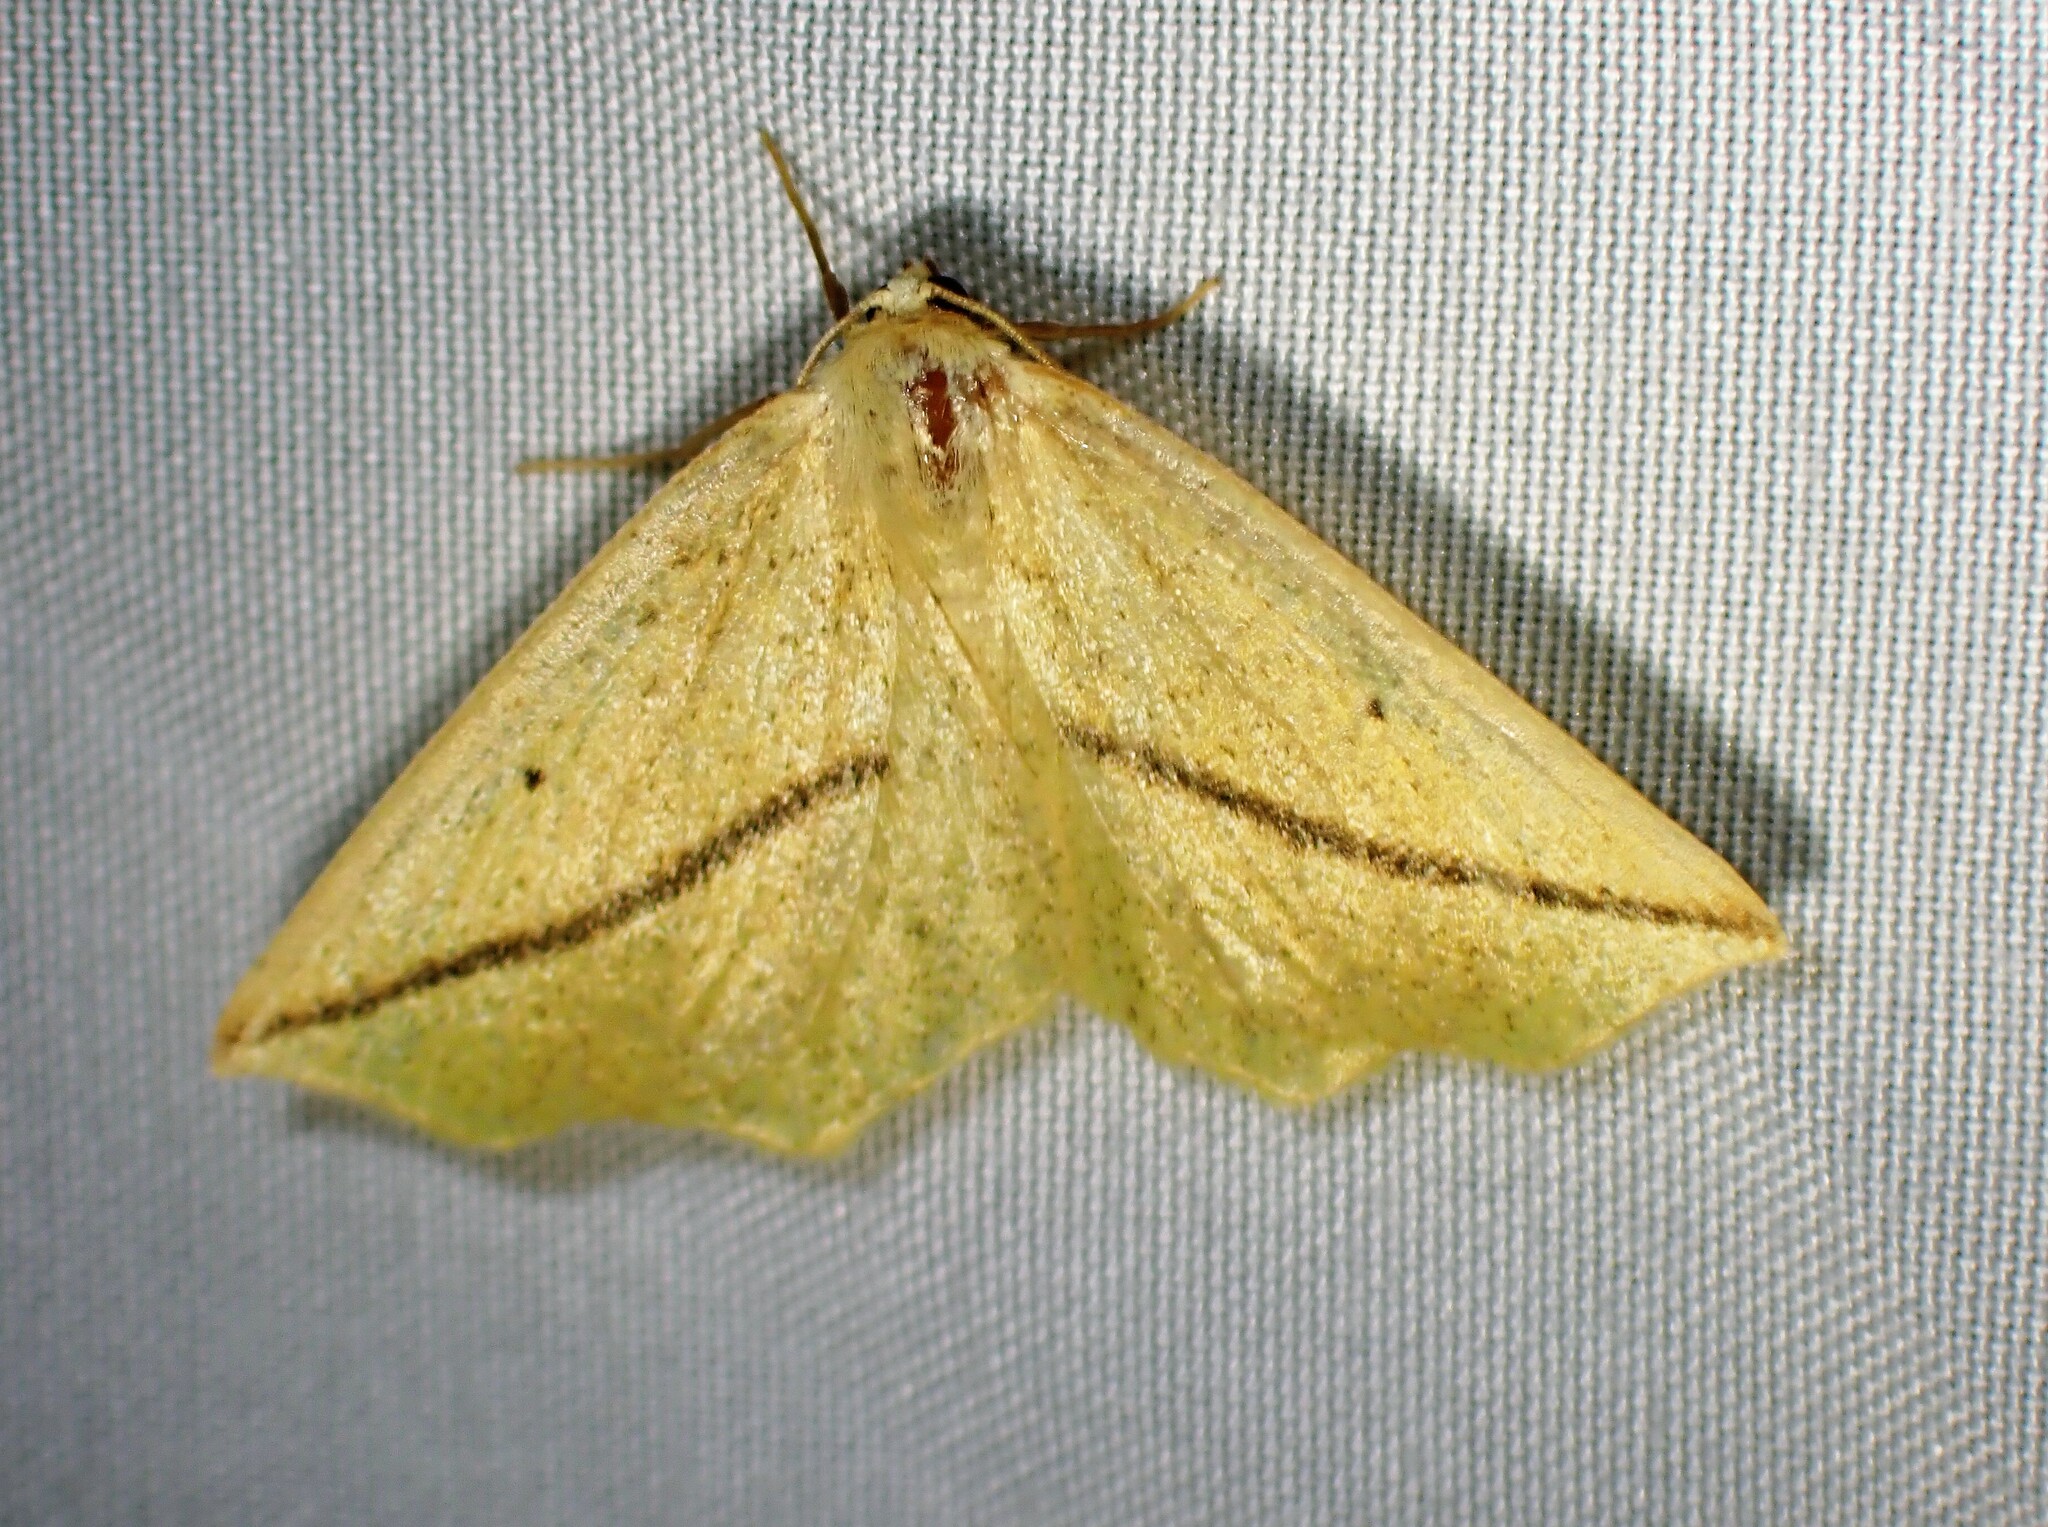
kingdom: Animalia
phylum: Arthropoda
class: Insecta
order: Lepidoptera
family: Geometridae
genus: Tetracis
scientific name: Tetracis crocallata
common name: Yellow slant-line
